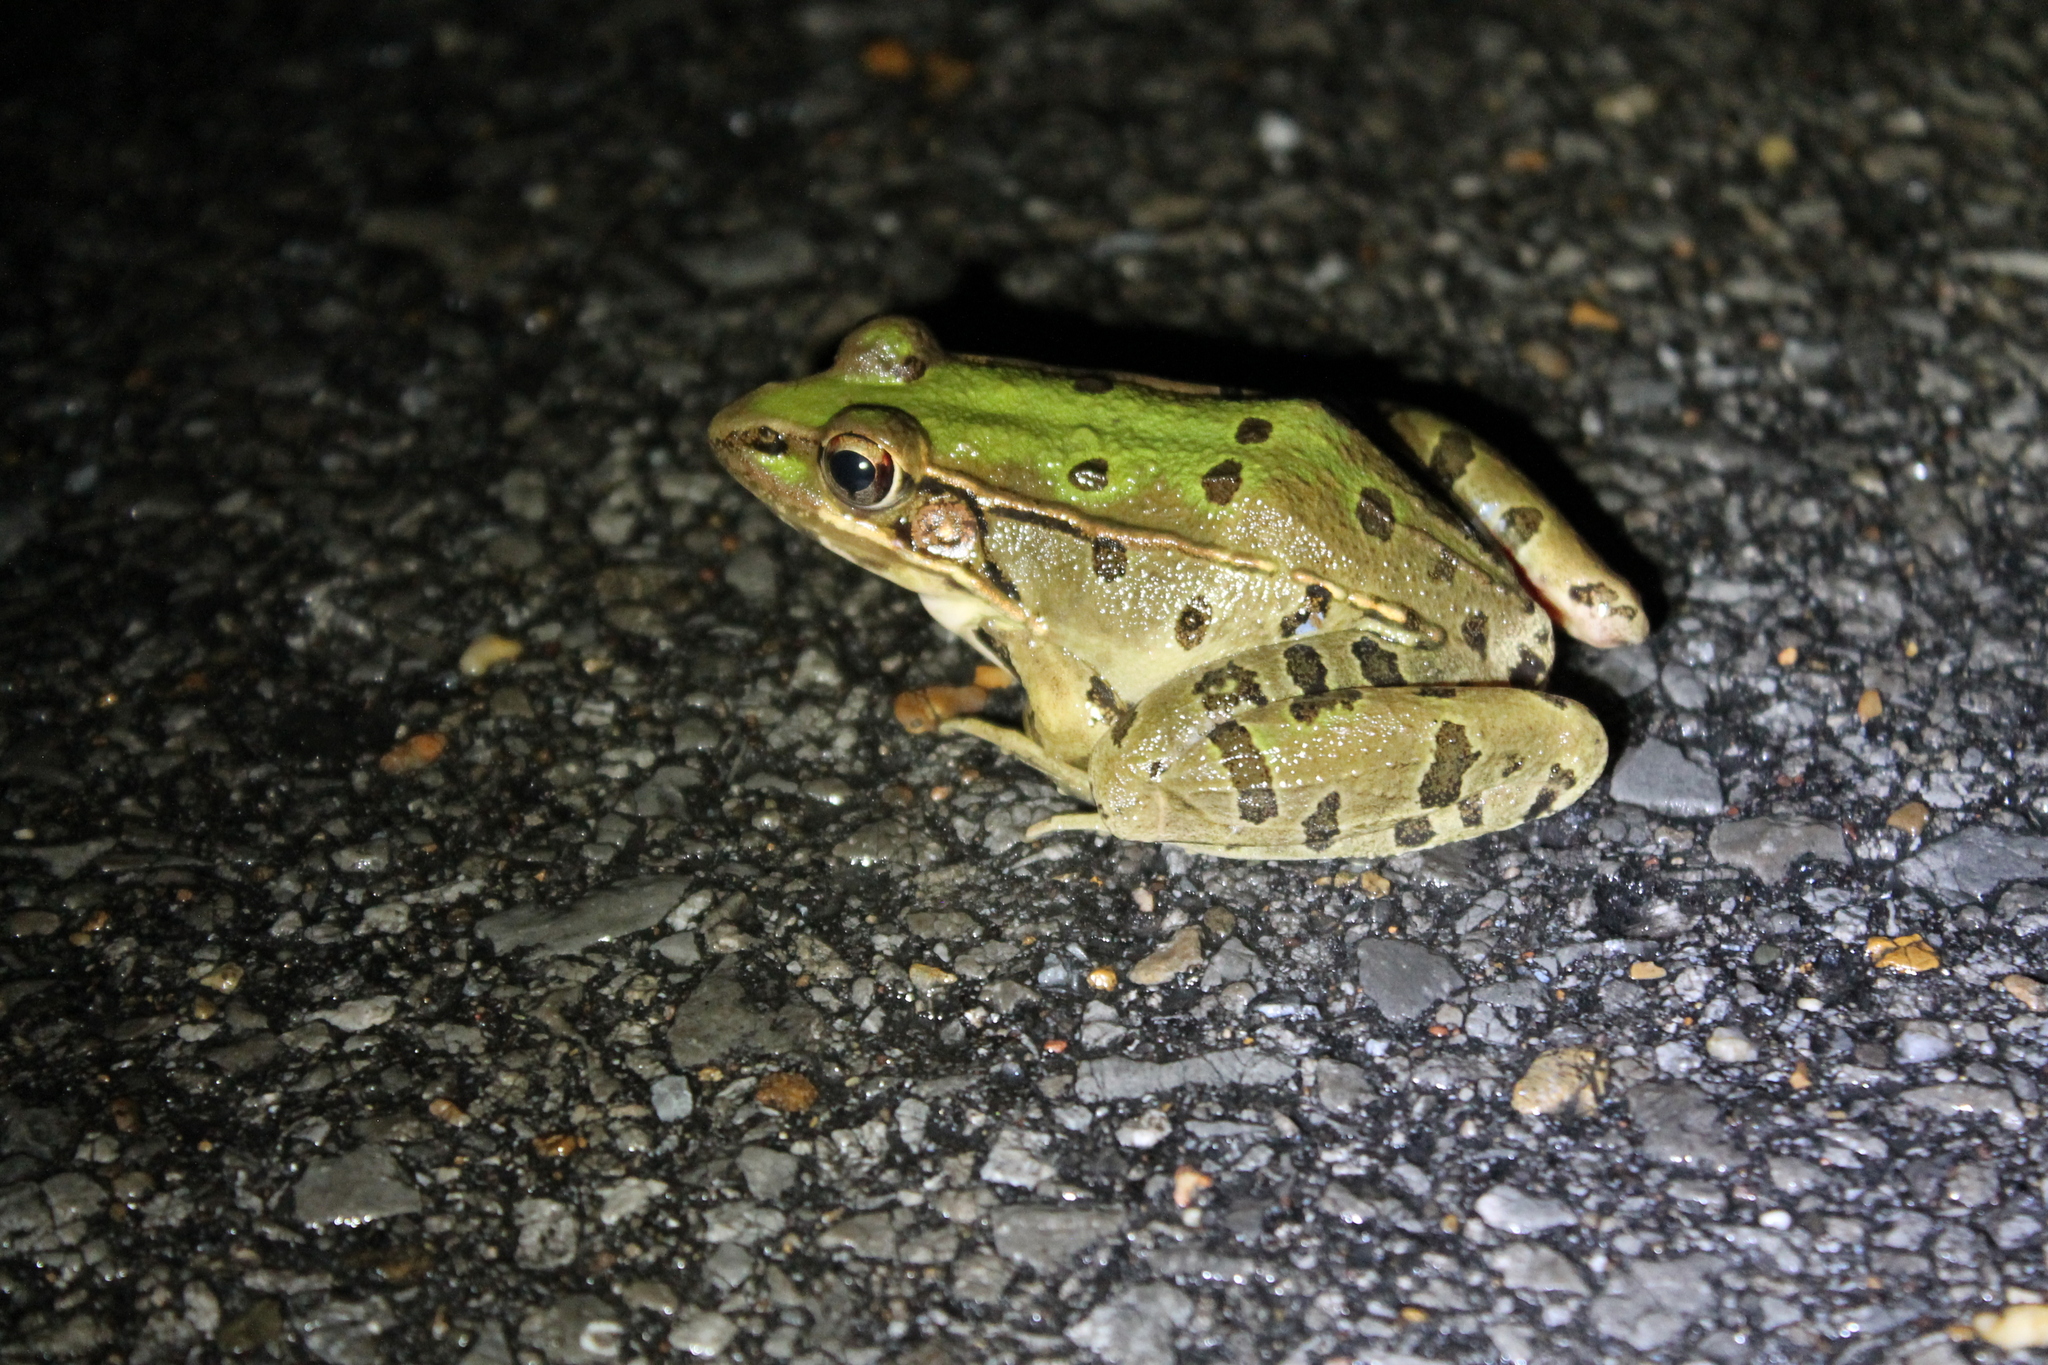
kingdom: Animalia
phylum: Chordata
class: Amphibia
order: Anura
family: Ranidae
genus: Lithobates
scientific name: Lithobates sphenocephalus
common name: Southern leopard frog
